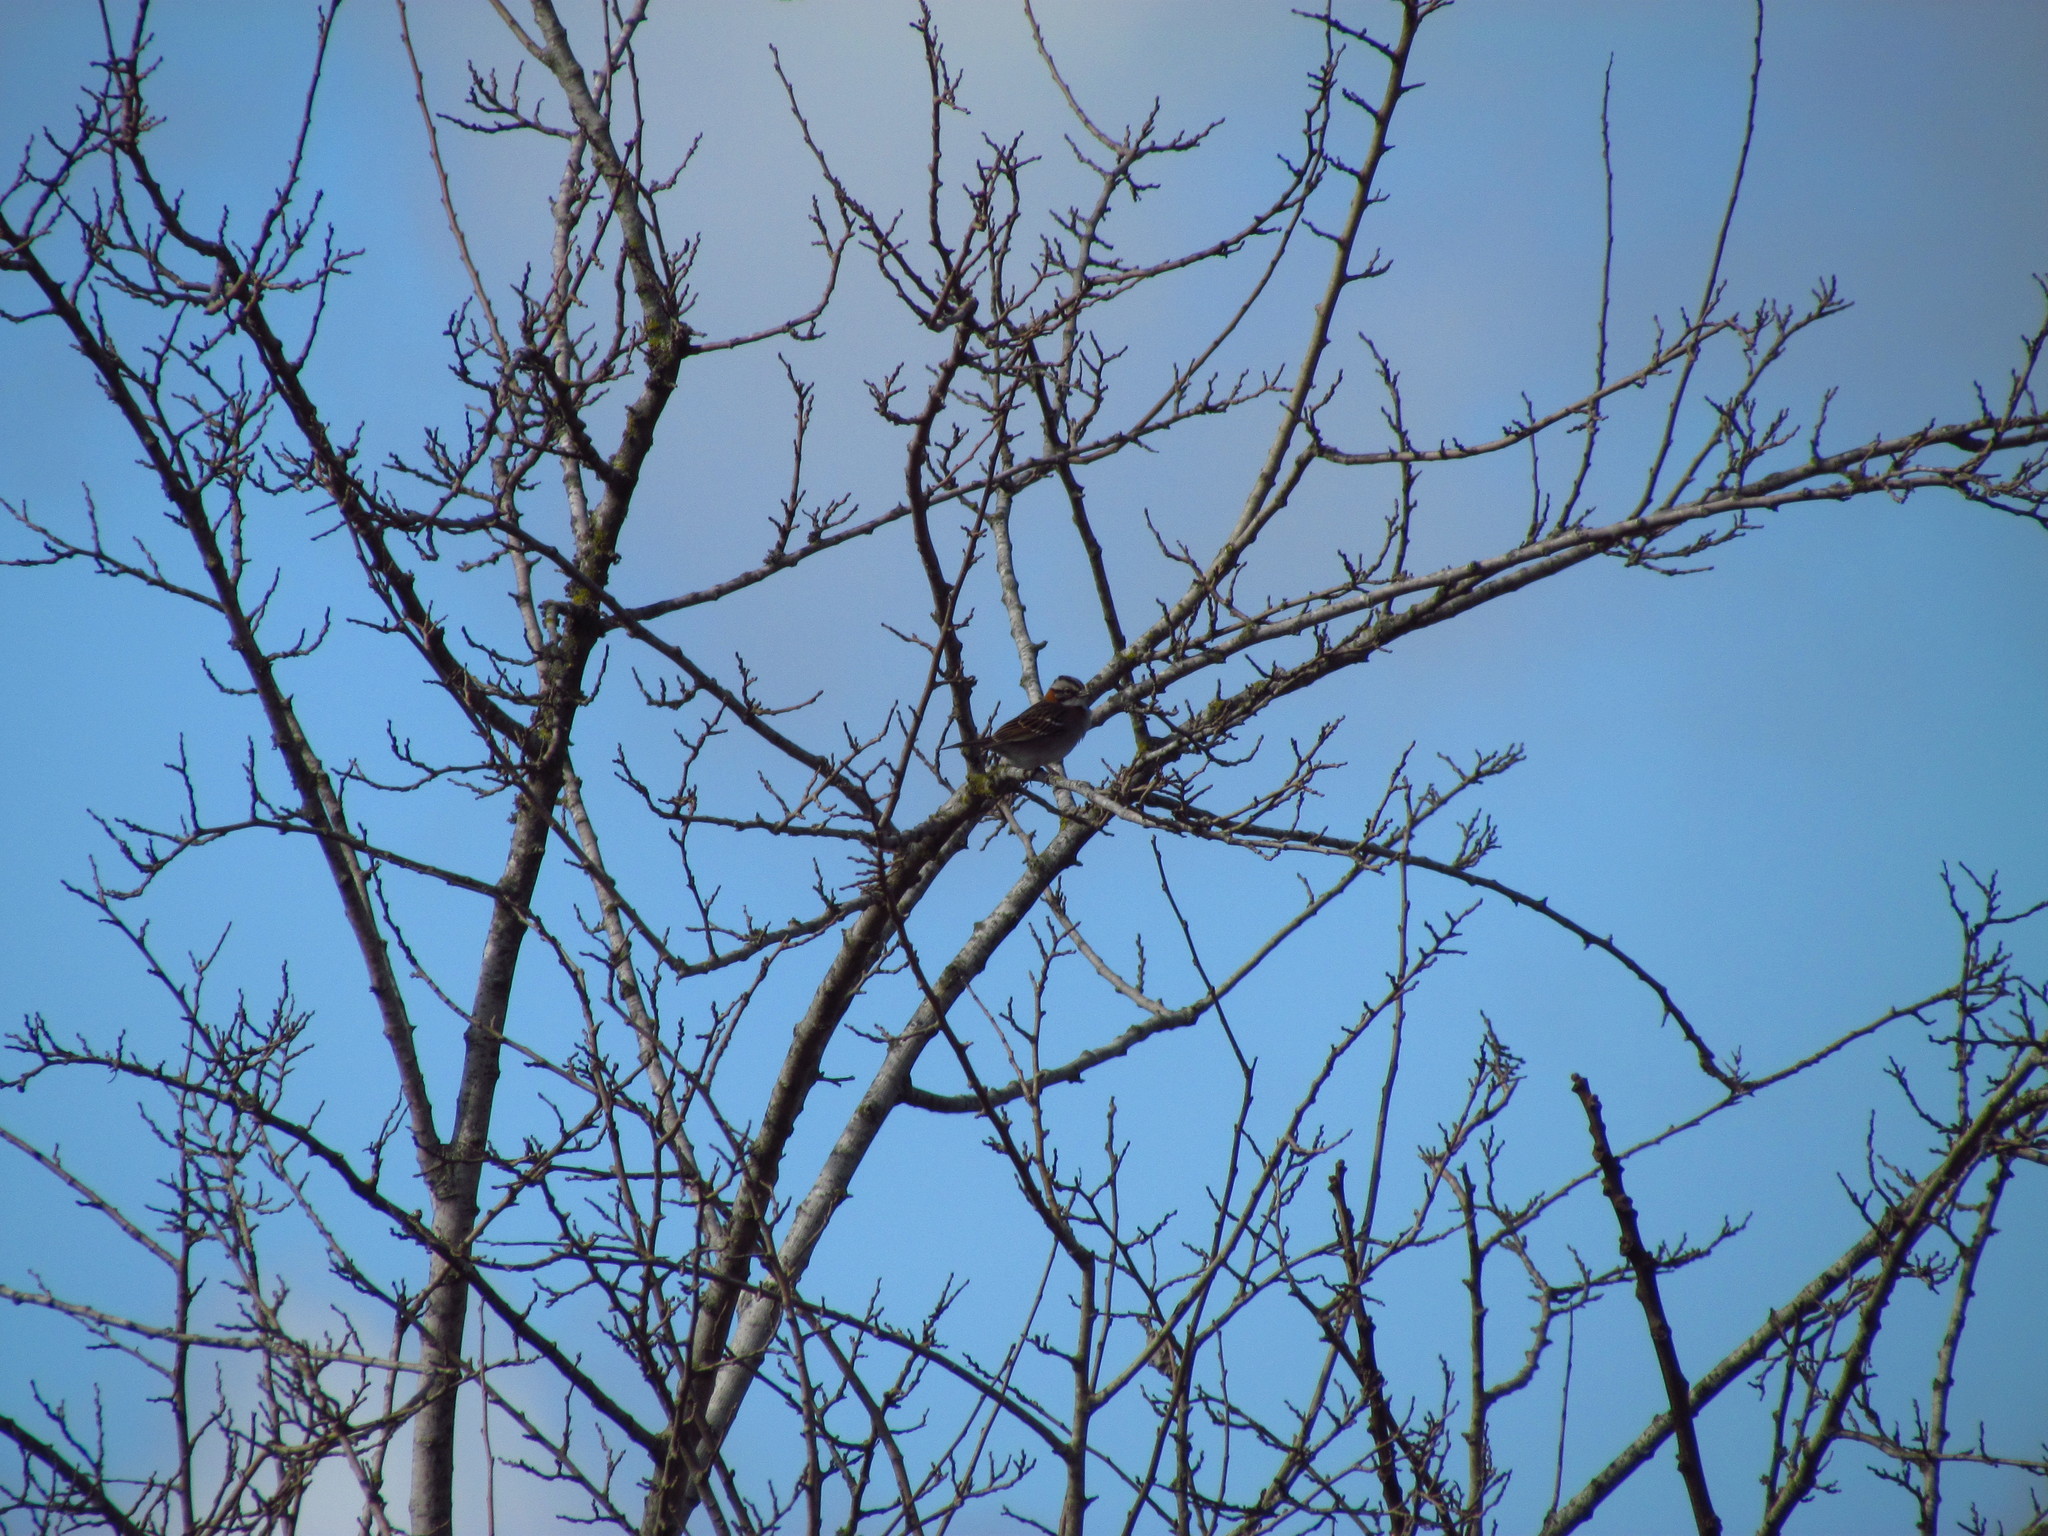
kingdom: Animalia
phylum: Chordata
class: Aves
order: Passeriformes
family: Passerellidae
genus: Zonotrichia
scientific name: Zonotrichia capensis
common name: Rufous-collared sparrow
